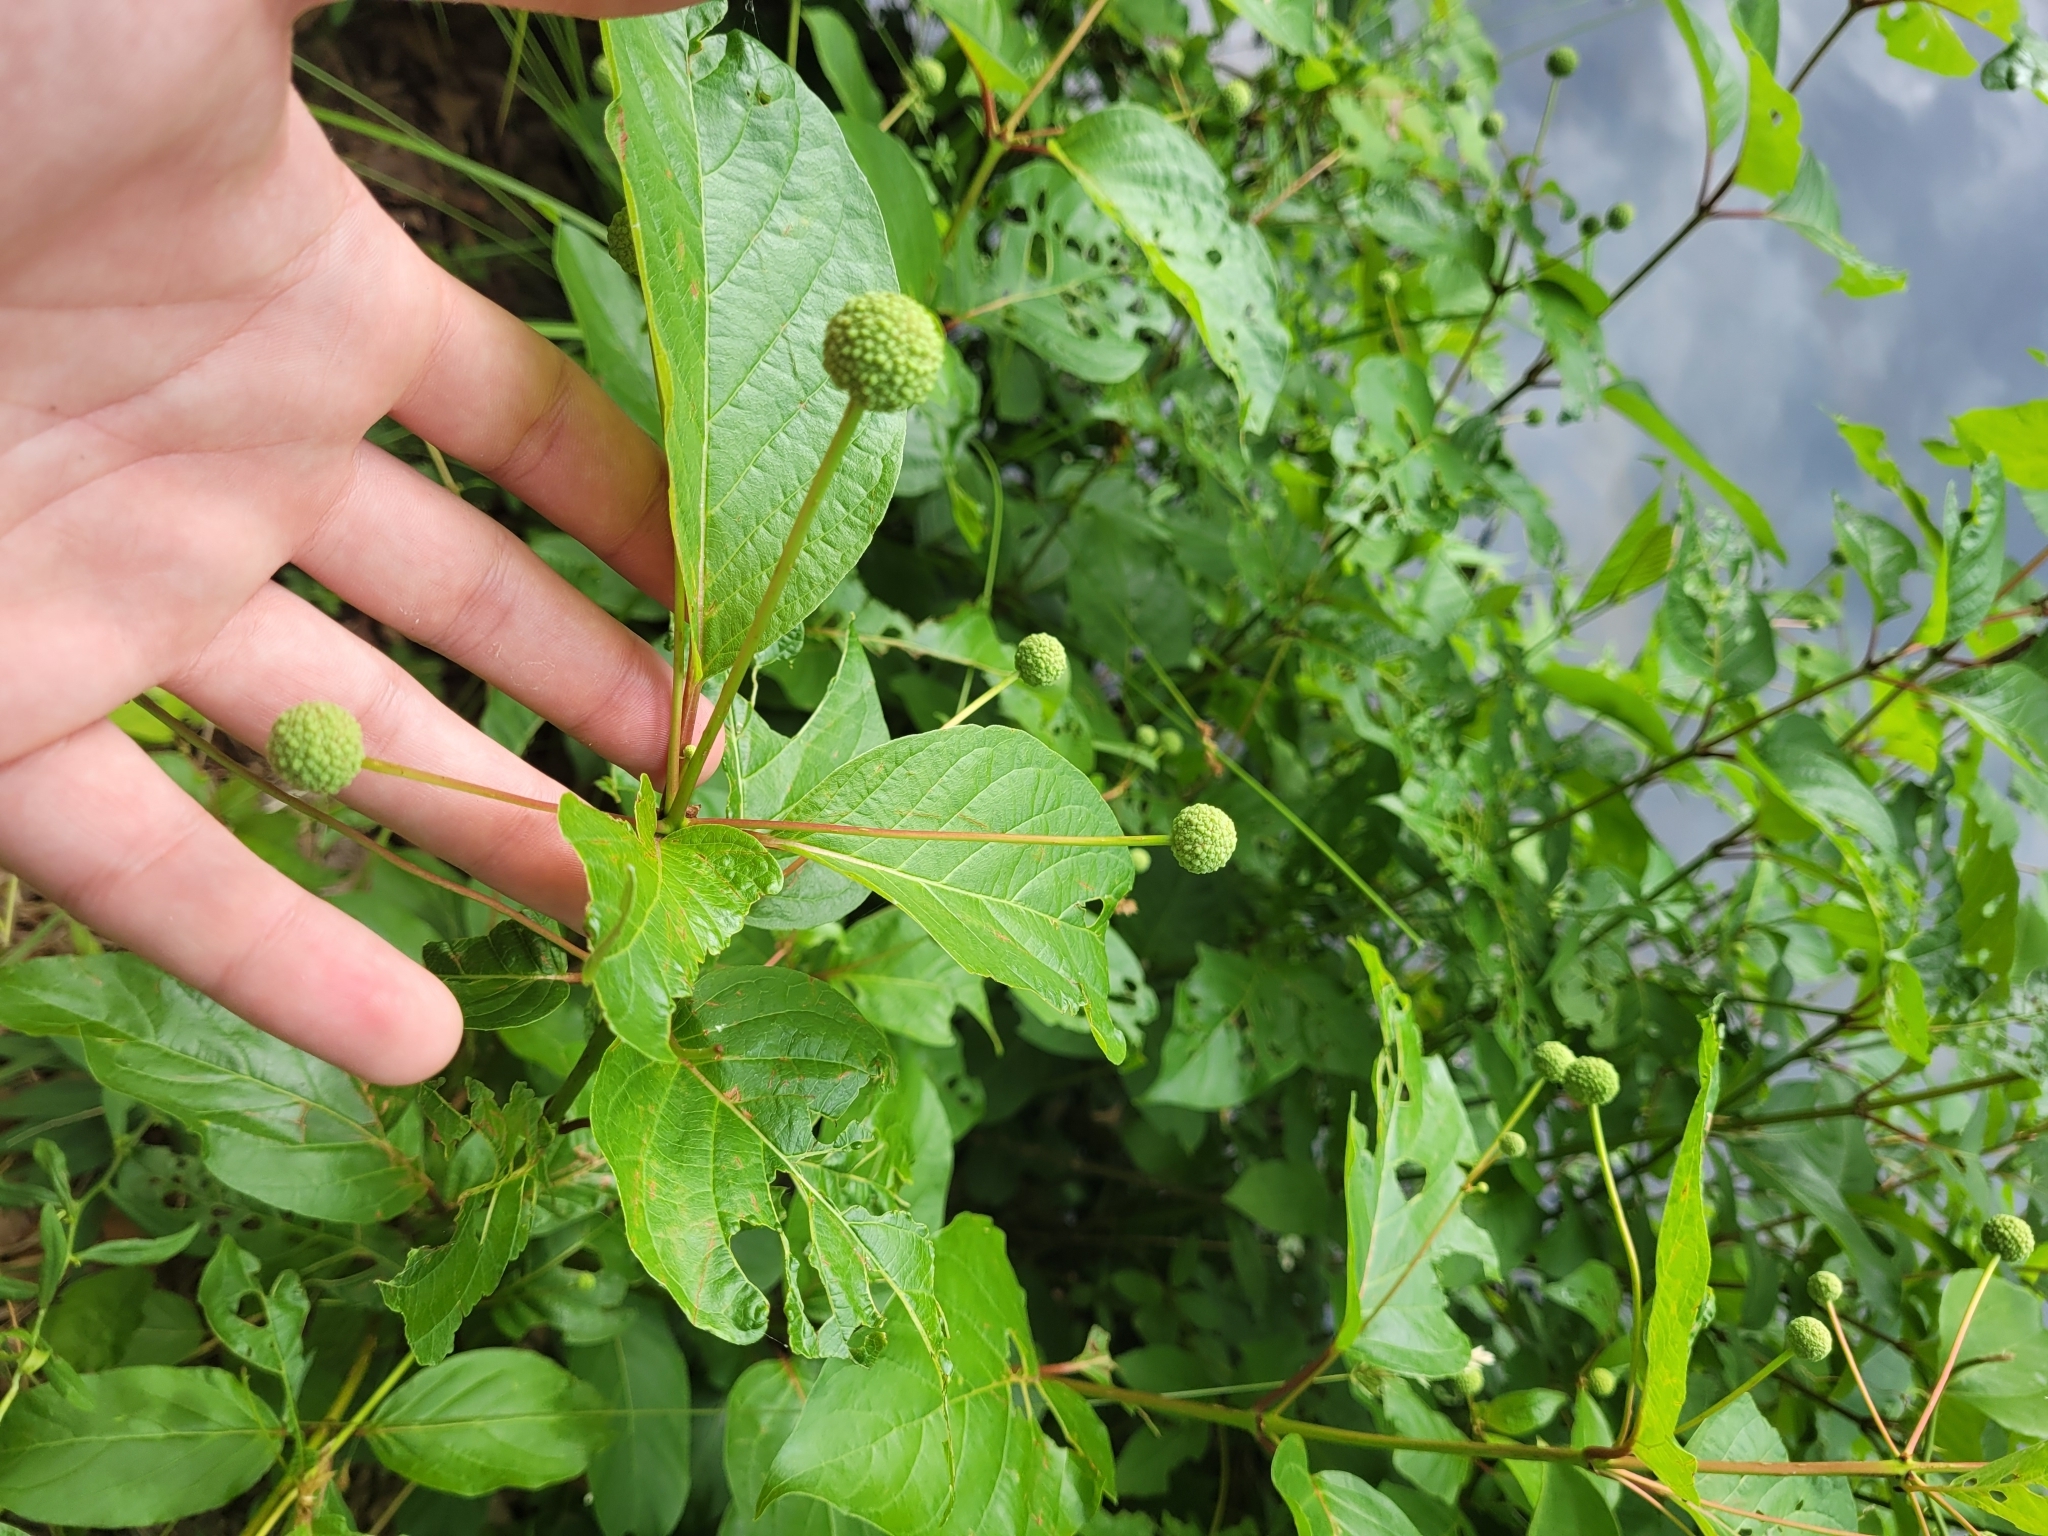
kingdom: Plantae
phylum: Tracheophyta
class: Magnoliopsida
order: Gentianales
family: Rubiaceae
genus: Cephalanthus
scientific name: Cephalanthus occidentalis
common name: Button-willow
